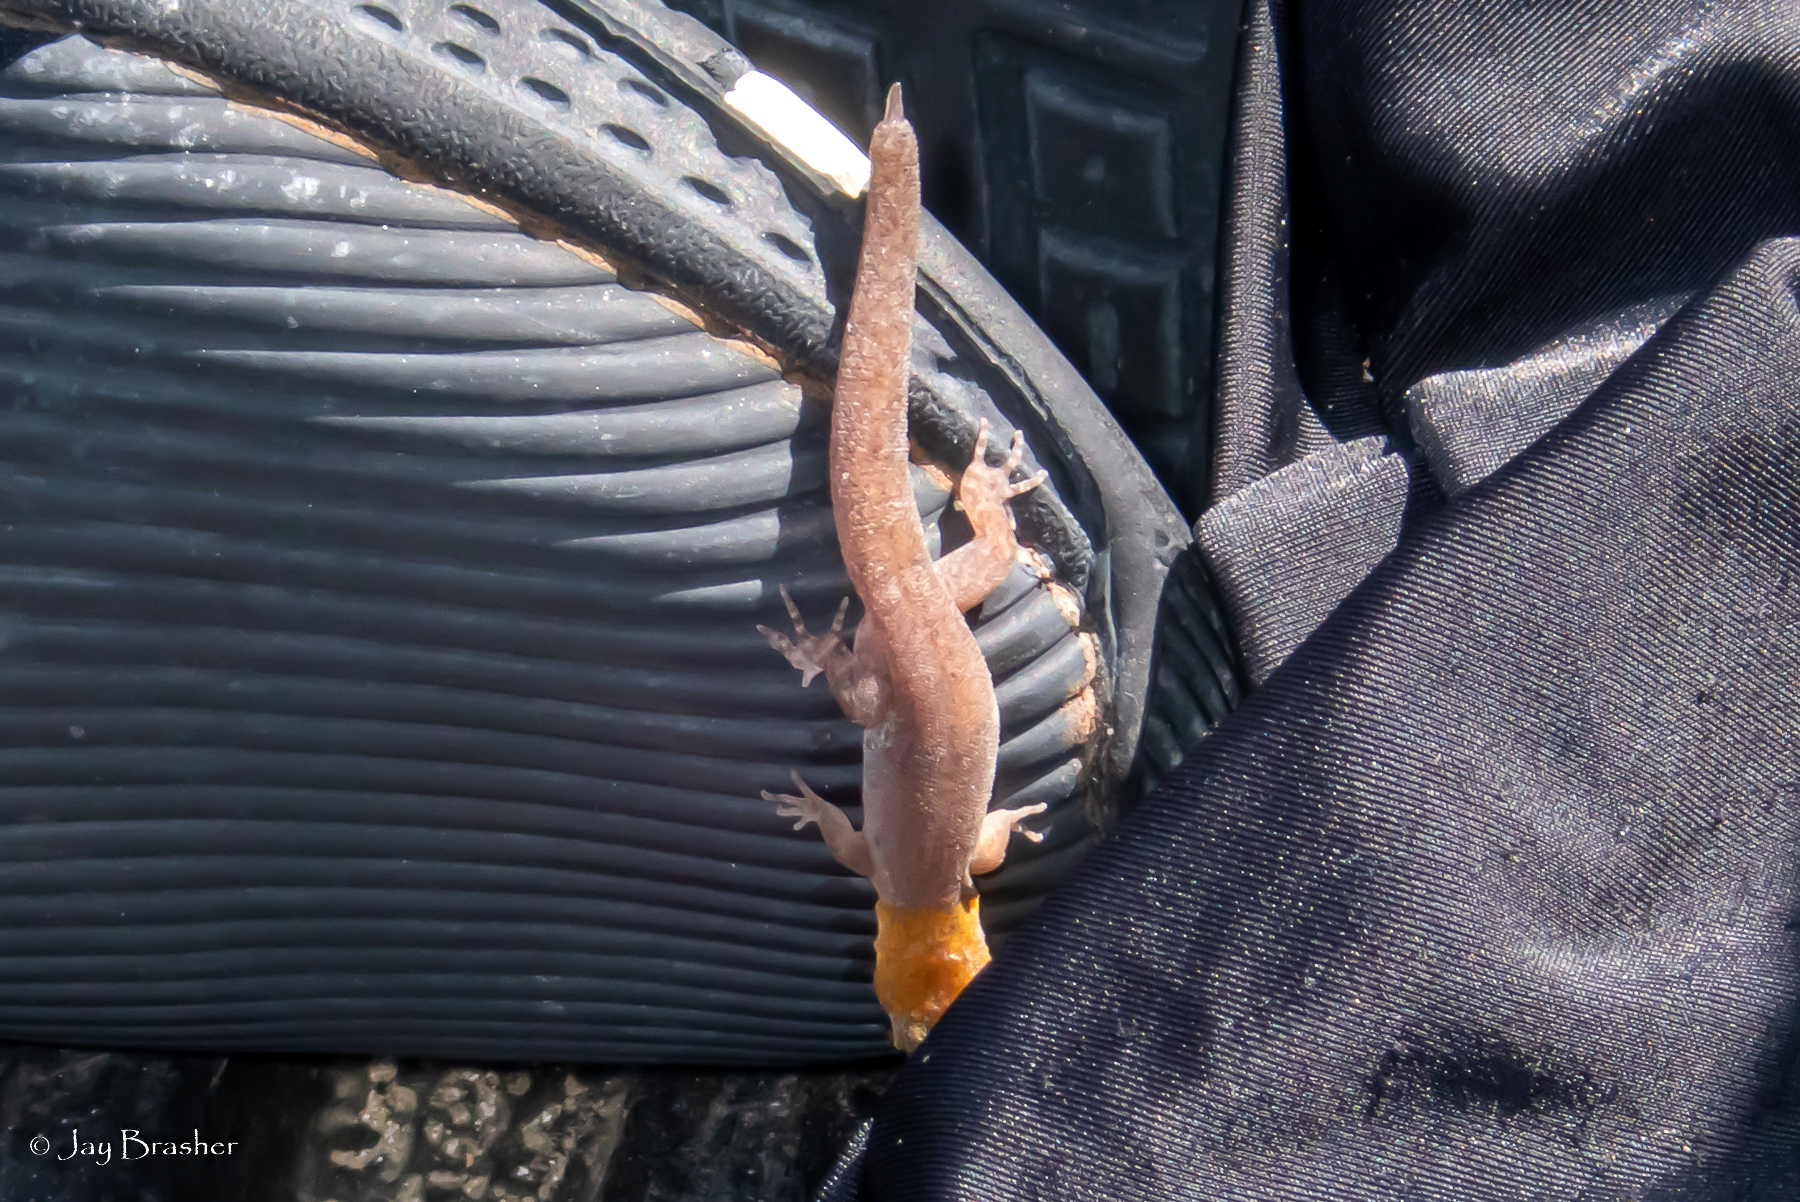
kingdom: Animalia
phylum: Chordata
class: Squamata
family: Sphaerodactylidae
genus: Gonatodes
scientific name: Gonatodes antillensis
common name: Antilles gecko
